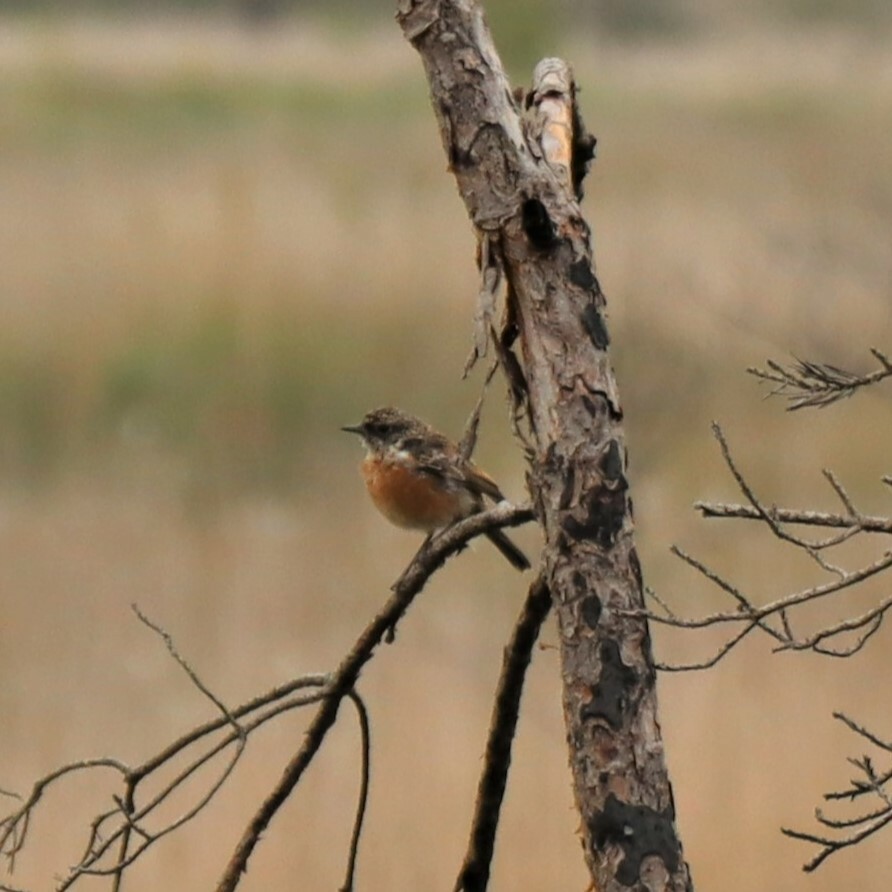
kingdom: Animalia
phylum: Chordata
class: Aves
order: Passeriformes
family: Muscicapidae
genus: Saxicola
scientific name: Saxicola rubicola
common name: European stonechat
